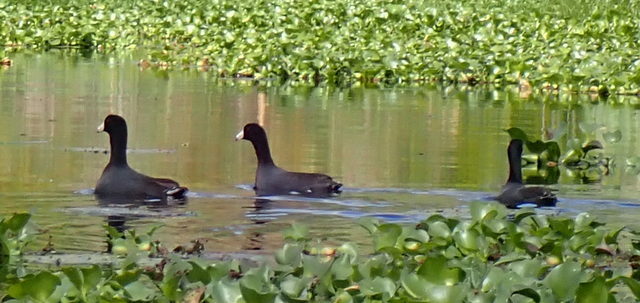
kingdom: Animalia
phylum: Chordata
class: Aves
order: Gruiformes
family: Rallidae
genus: Fulica
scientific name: Fulica americana
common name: American coot
